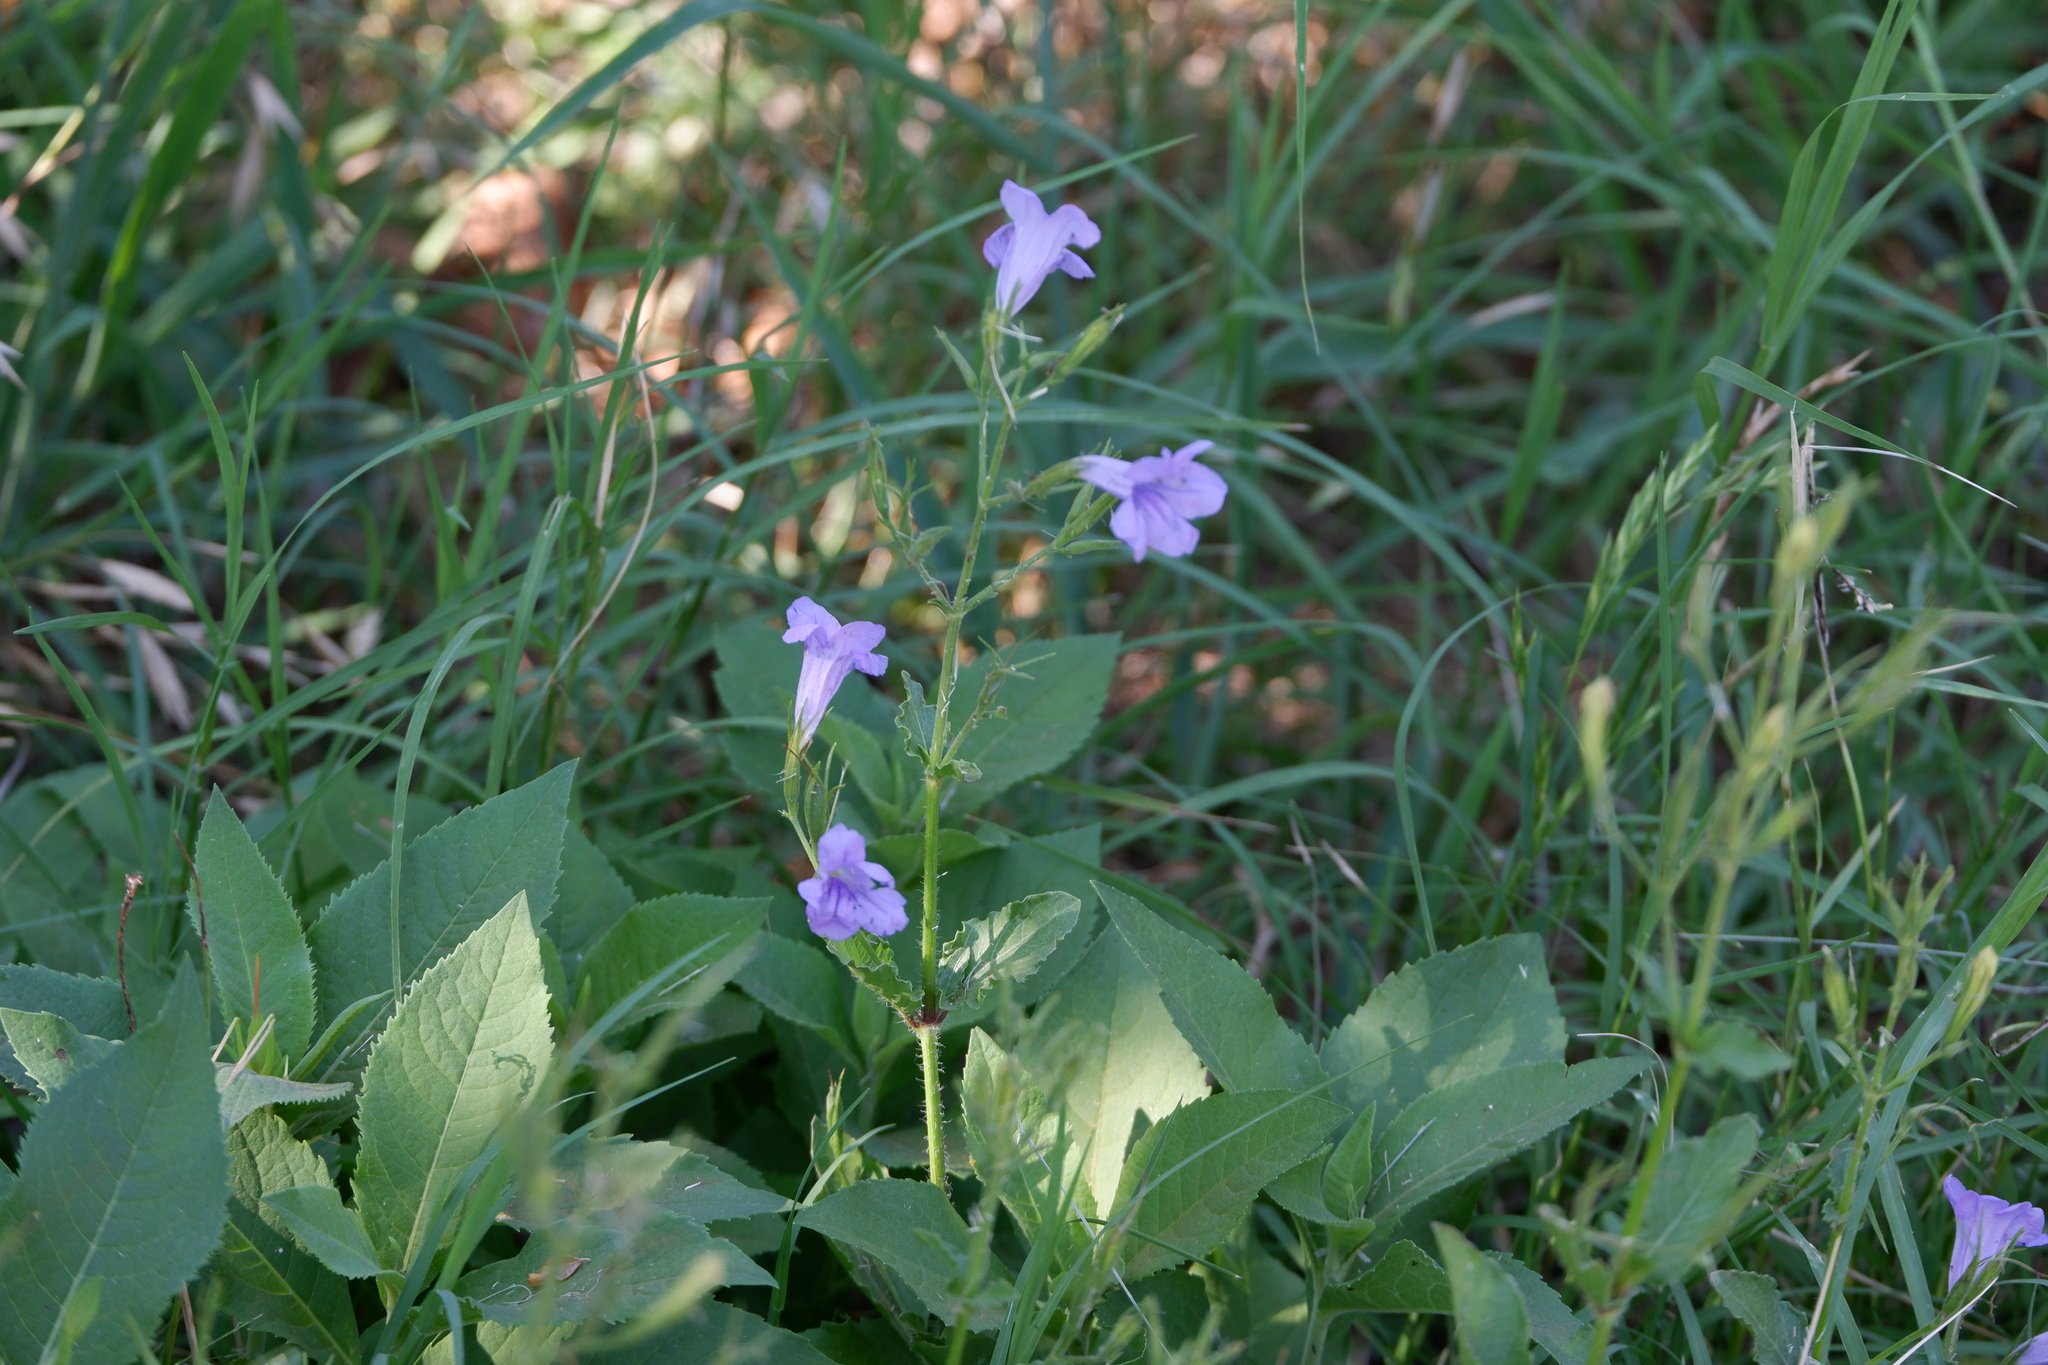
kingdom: Plantae
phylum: Tracheophyta
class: Magnoliopsida
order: Lamiales
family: Acanthaceae
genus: Ruellia
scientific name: Ruellia ciliatiflora
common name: Hairyflower wild petunia
